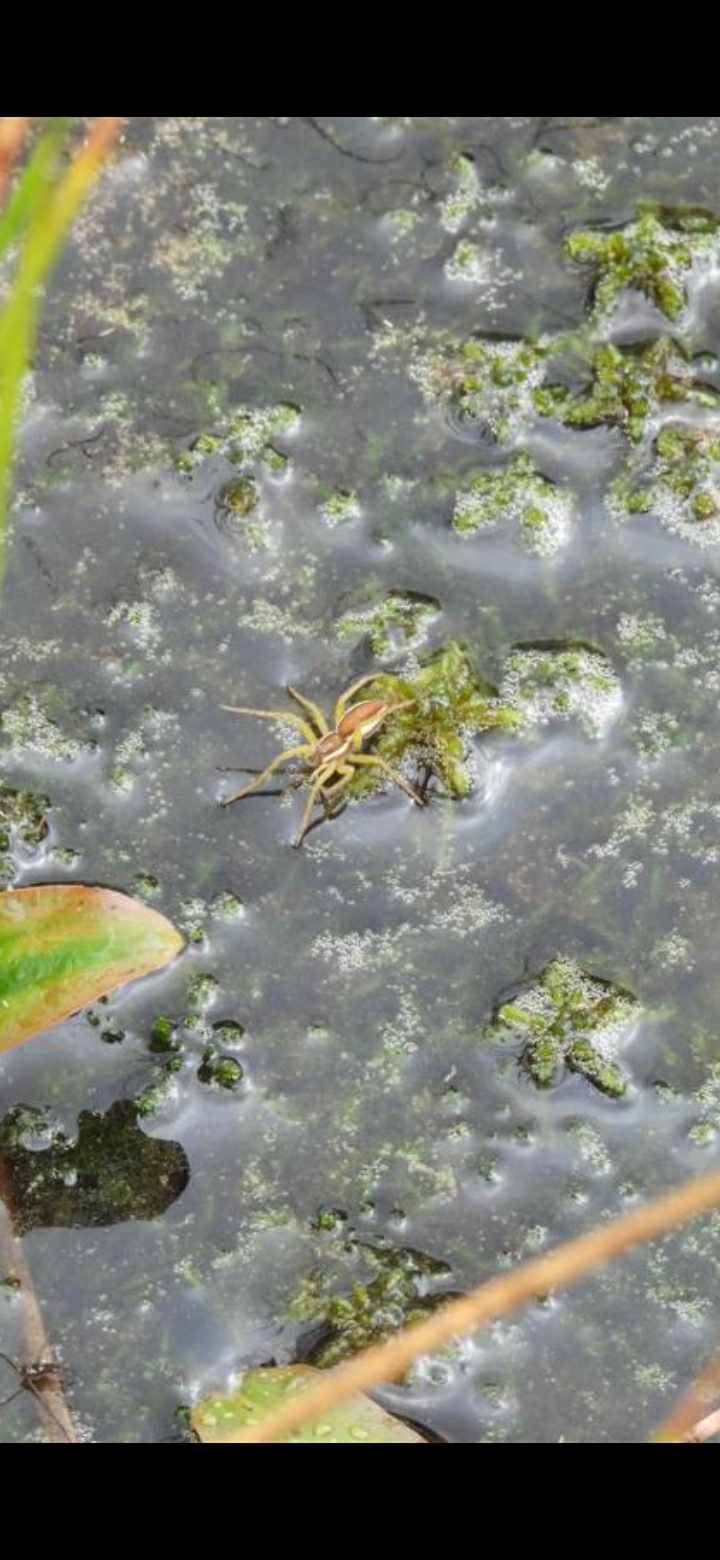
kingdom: Animalia
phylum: Arthropoda
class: Arachnida
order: Araneae
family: Pisauridae
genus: Dolomedes
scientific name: Dolomedes fimbriatus
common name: Raft spider
